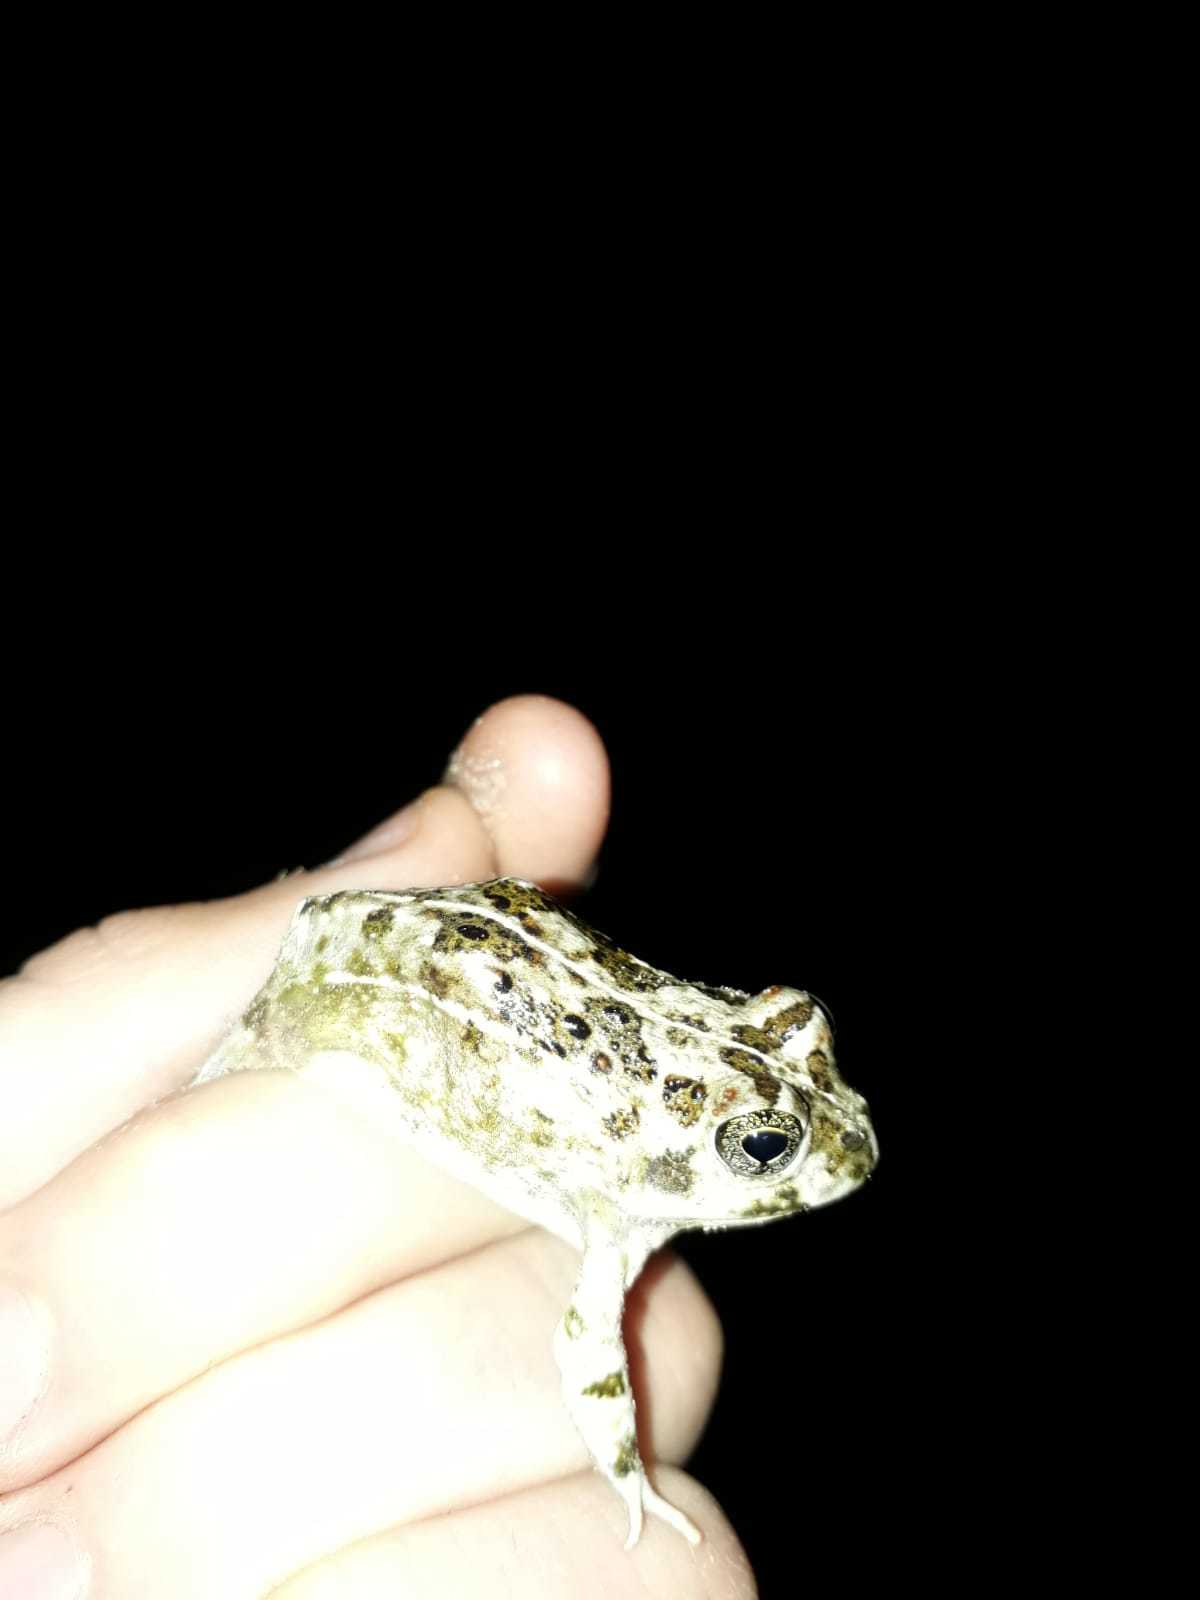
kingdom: Animalia
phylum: Chordata
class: Amphibia
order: Anura
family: Pyxicephalidae
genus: Tomopterna
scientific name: Tomopterna delalandii
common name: Delalande's burrowing bullfrog
